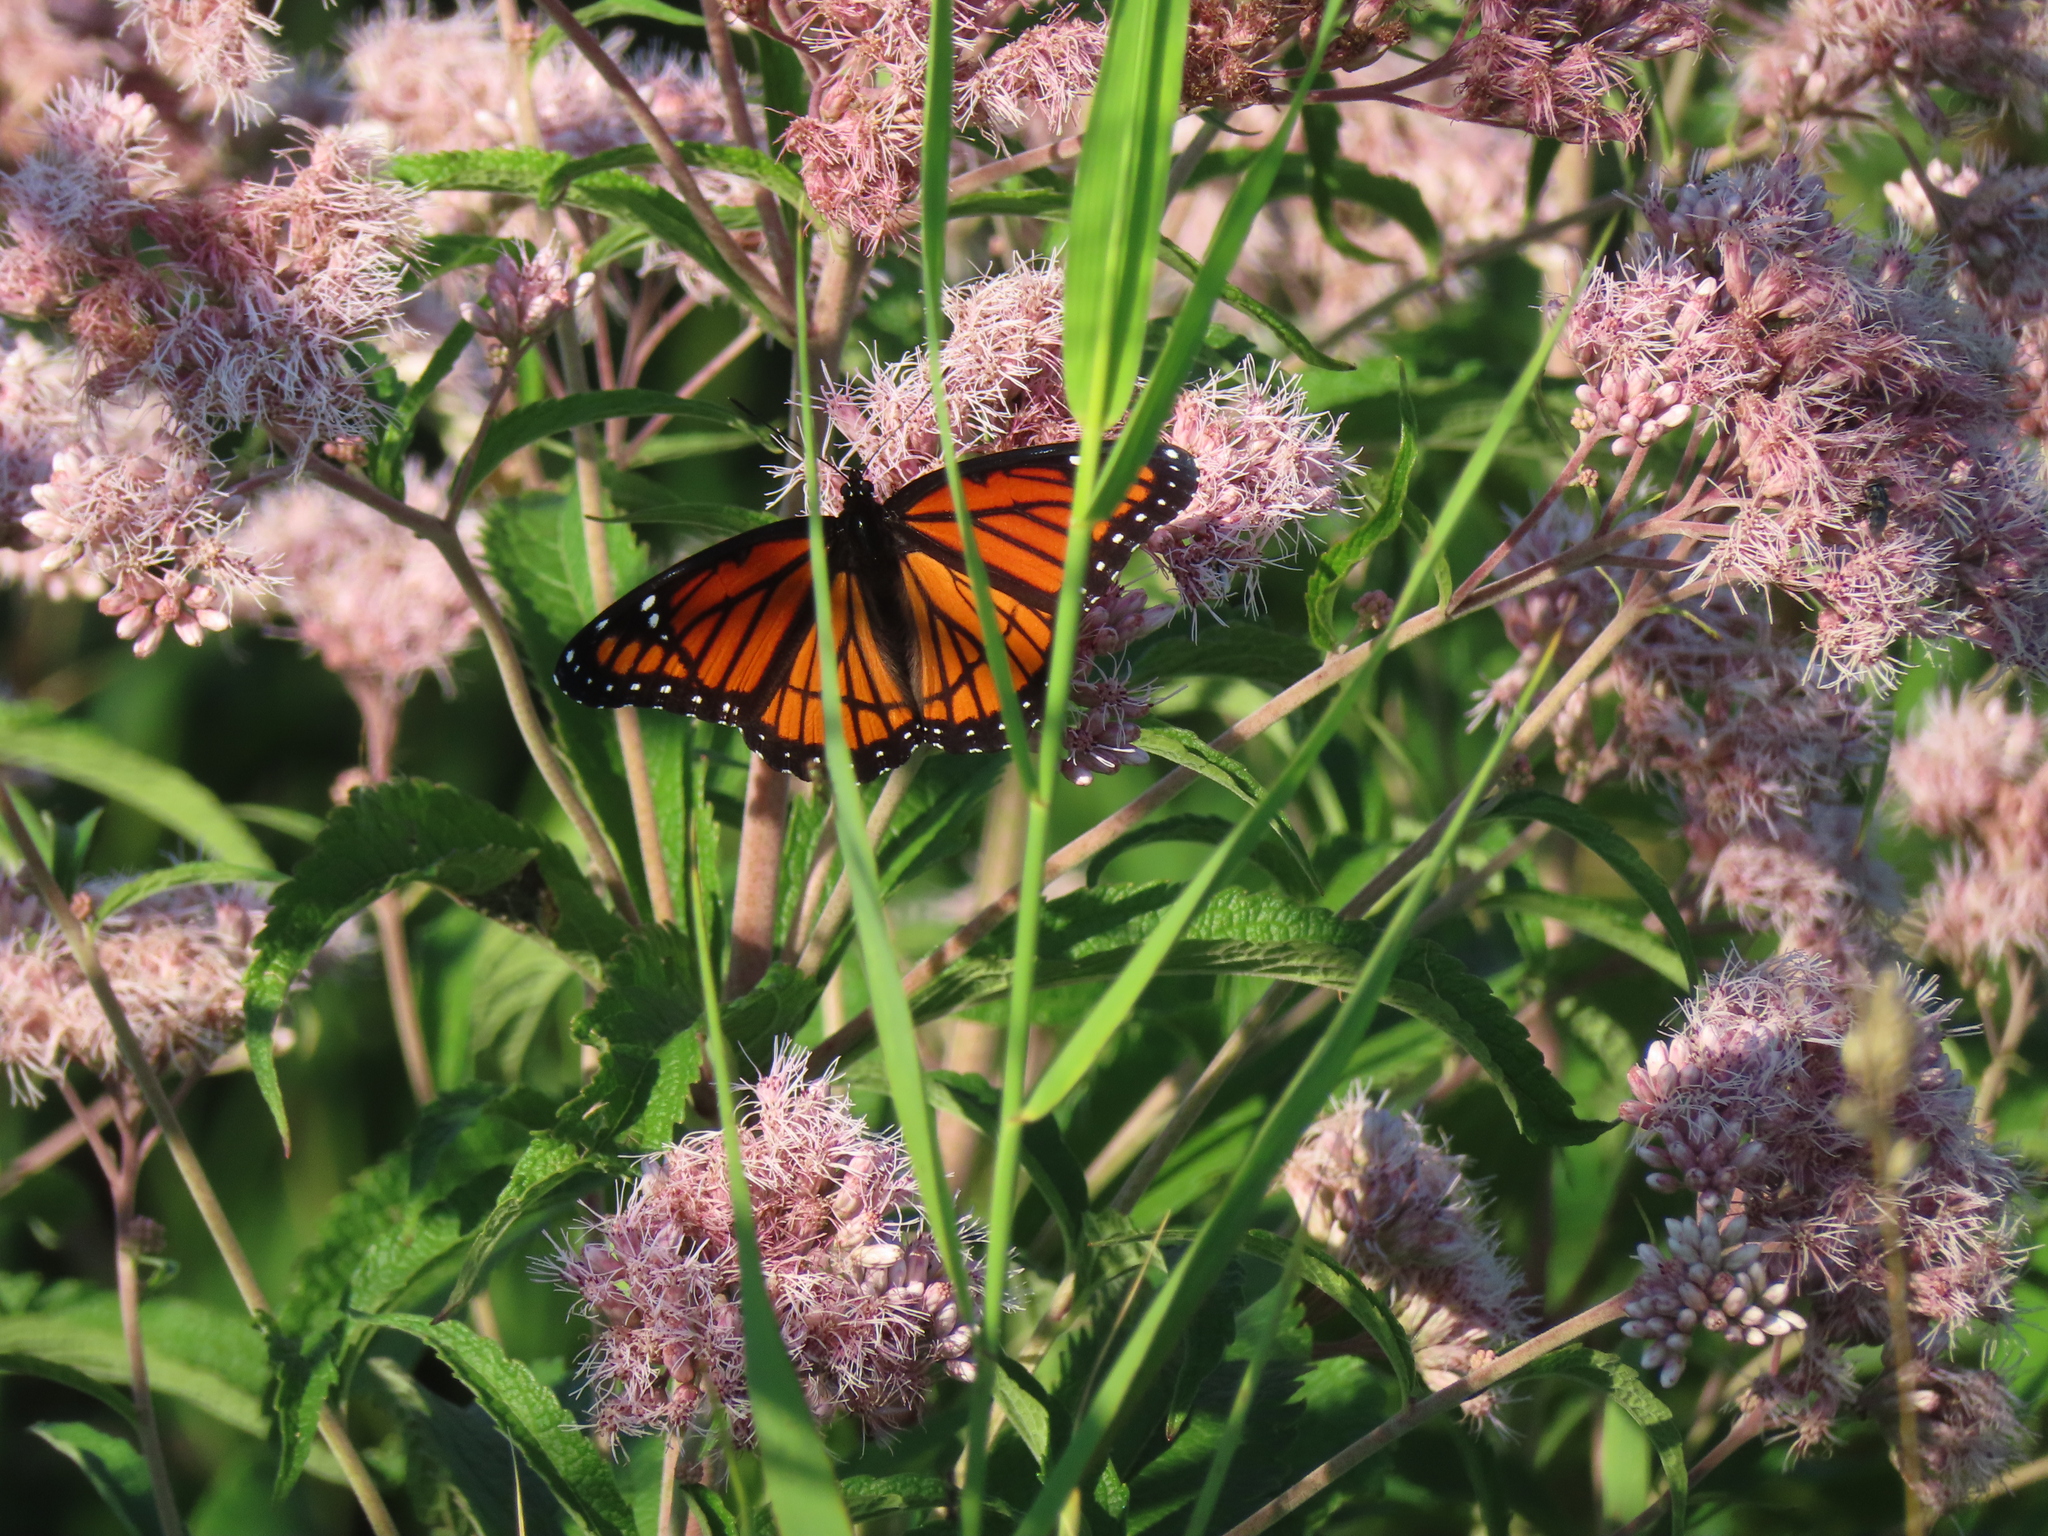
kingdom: Animalia
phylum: Arthropoda
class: Insecta
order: Lepidoptera
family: Nymphalidae
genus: Limenitis
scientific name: Limenitis archippus
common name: Viceroy
